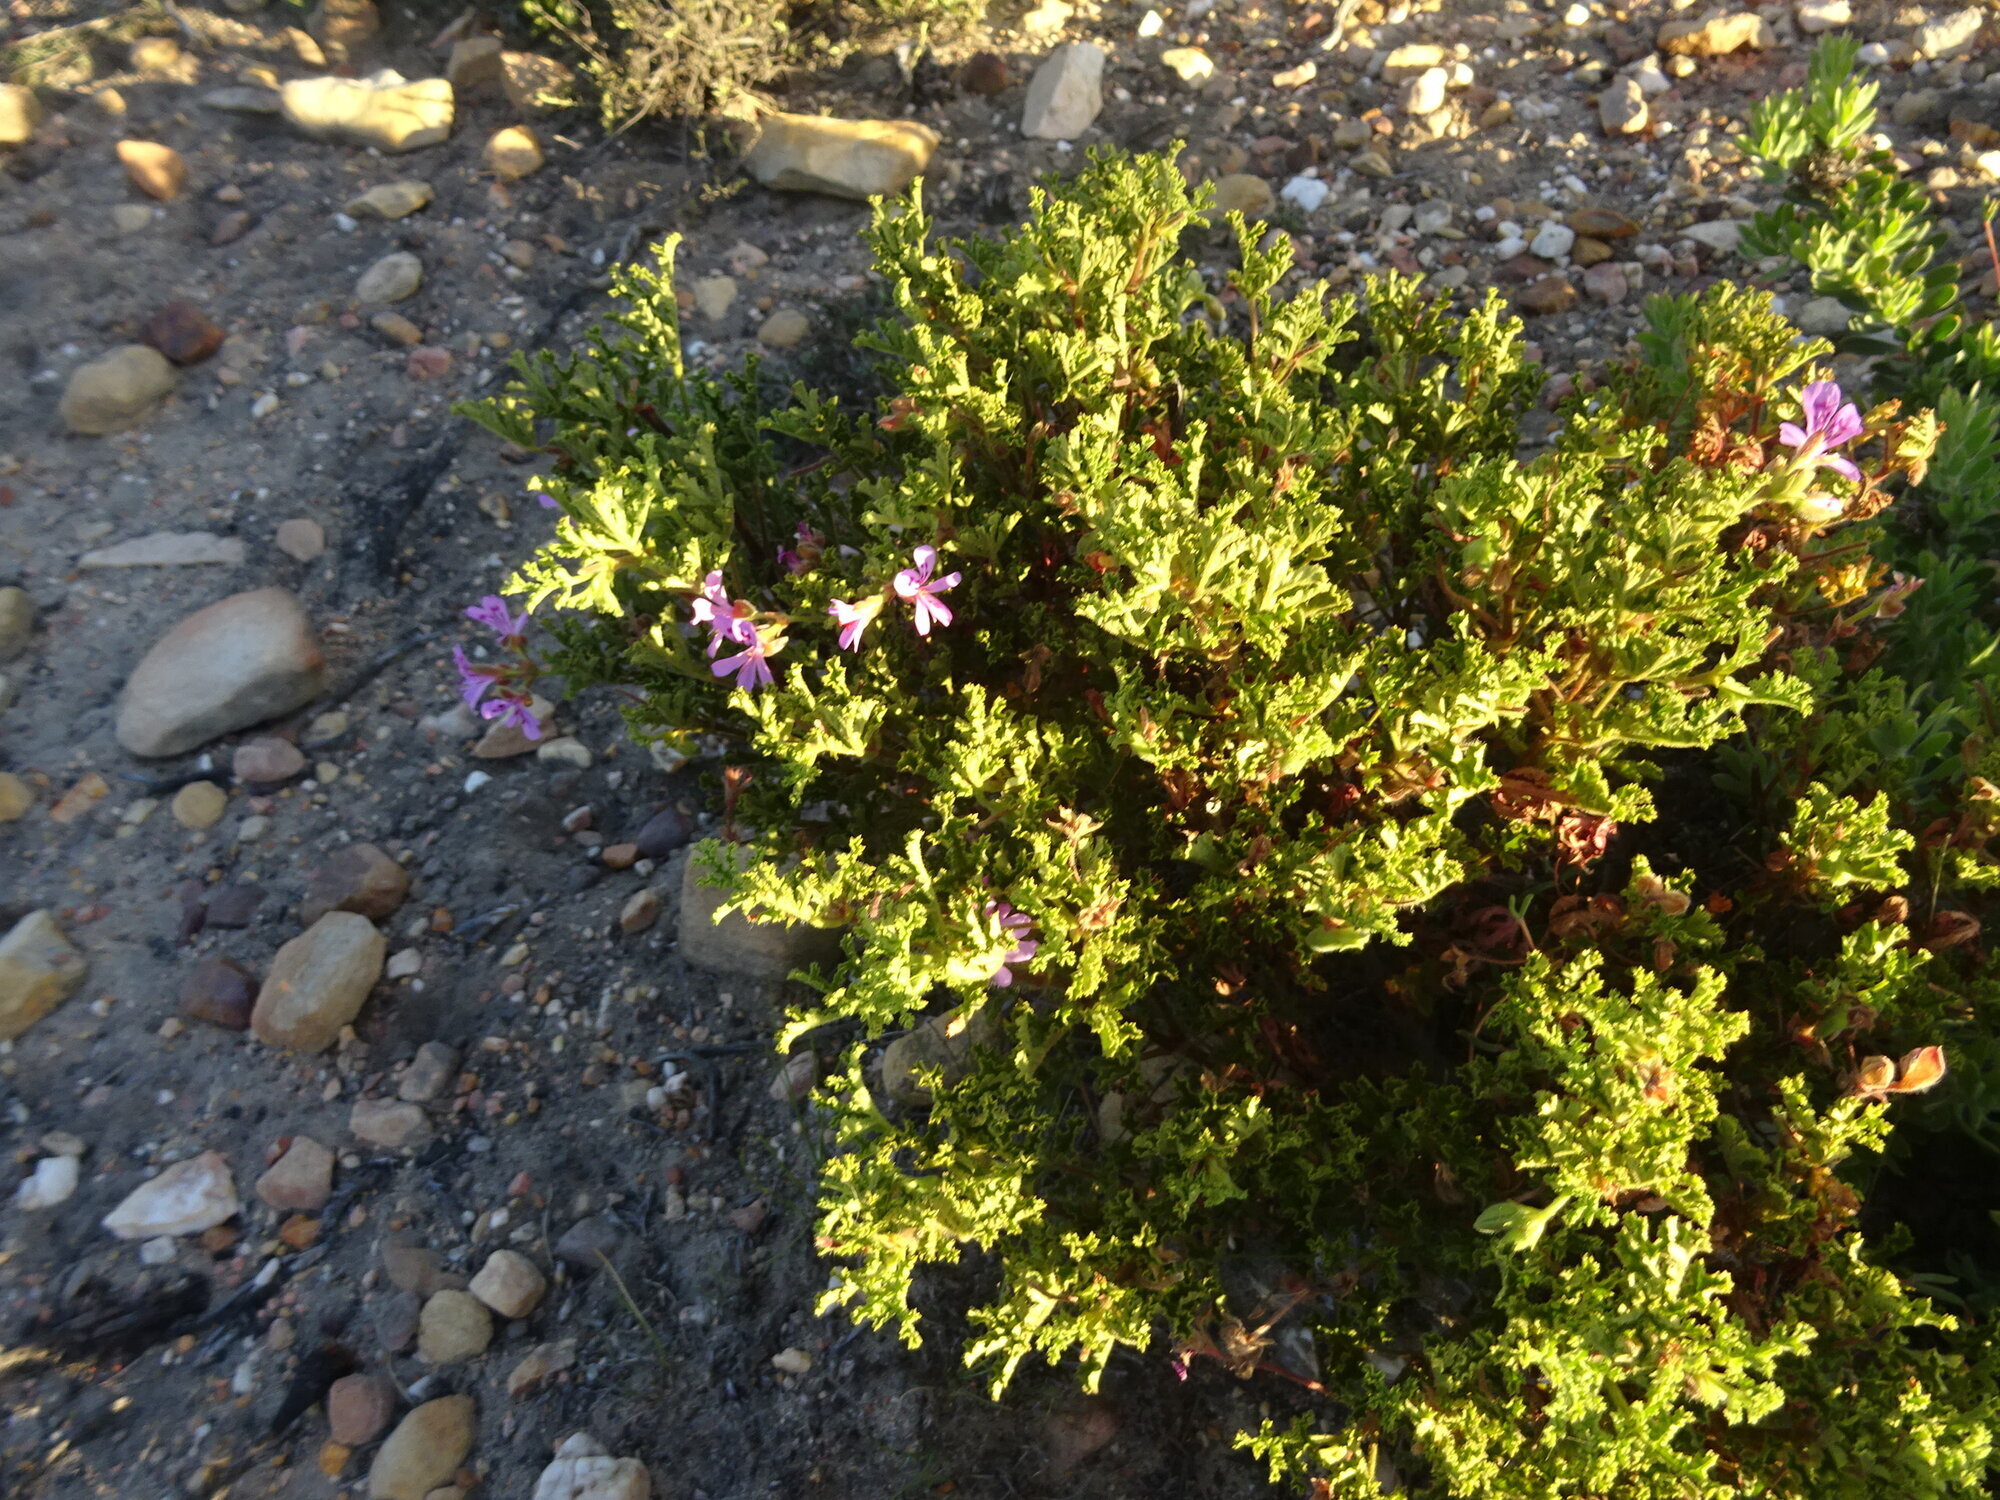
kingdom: Plantae
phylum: Tracheophyta
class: Magnoliopsida
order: Geraniales
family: Geraniaceae
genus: Pelargonium
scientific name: Pelargonium quercifolium
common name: Oakleaf geranium
